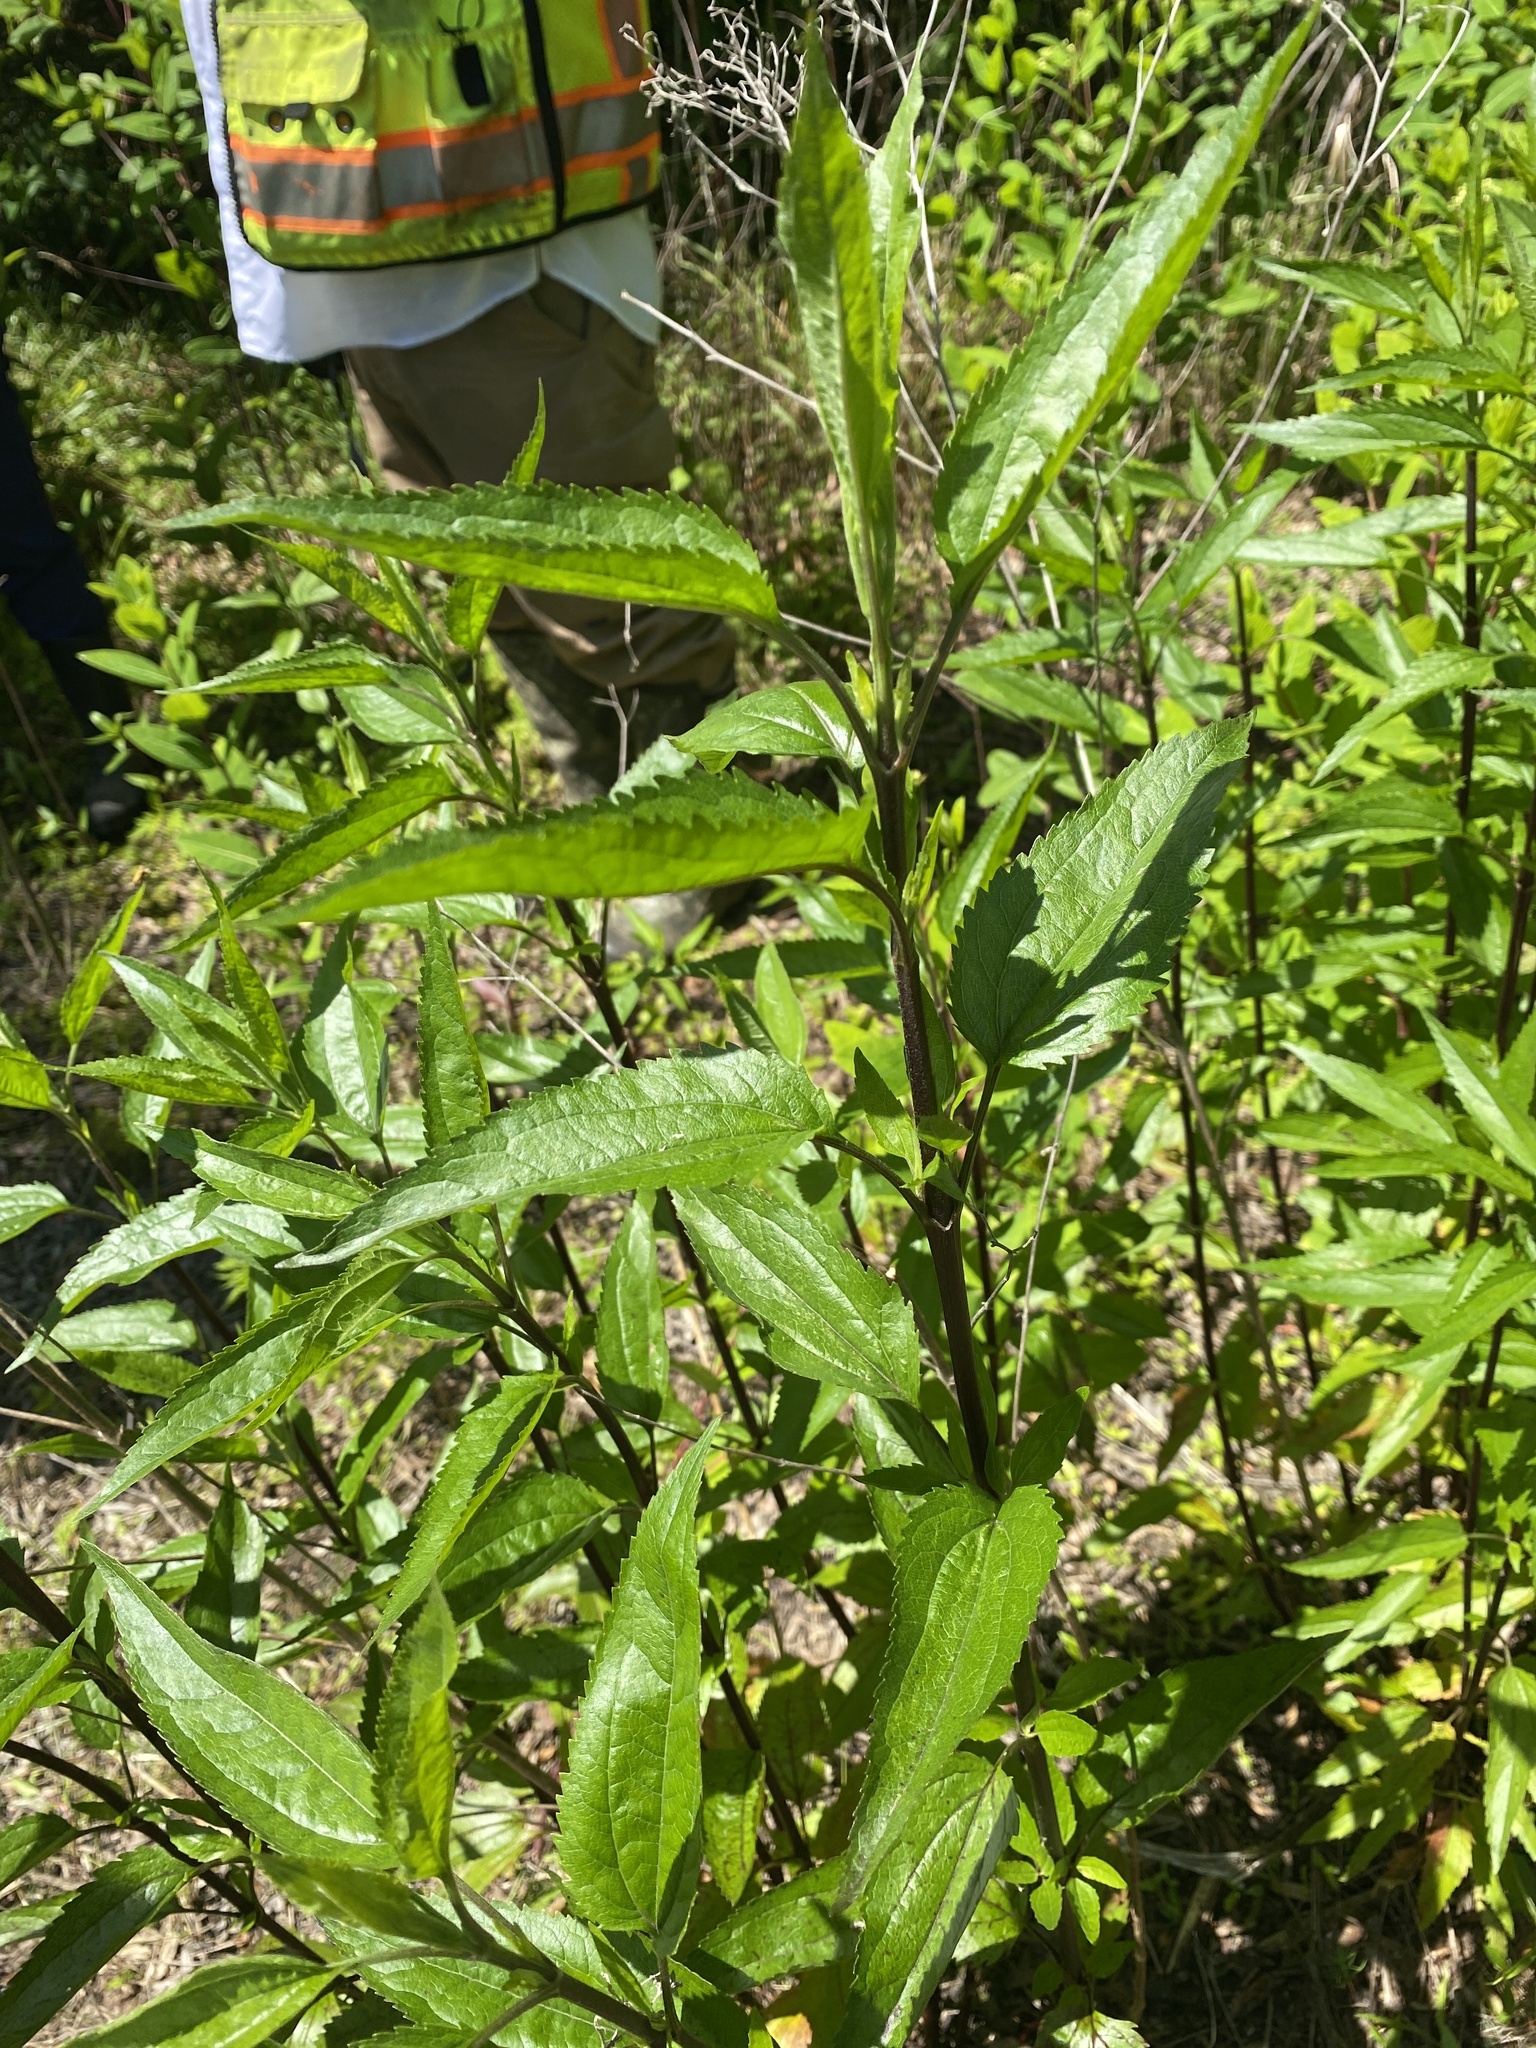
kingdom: Plantae
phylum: Tracheophyta
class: Magnoliopsida
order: Asterales
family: Asteraceae
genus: Eupatorium
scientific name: Eupatorium serotinum
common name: Late boneset
